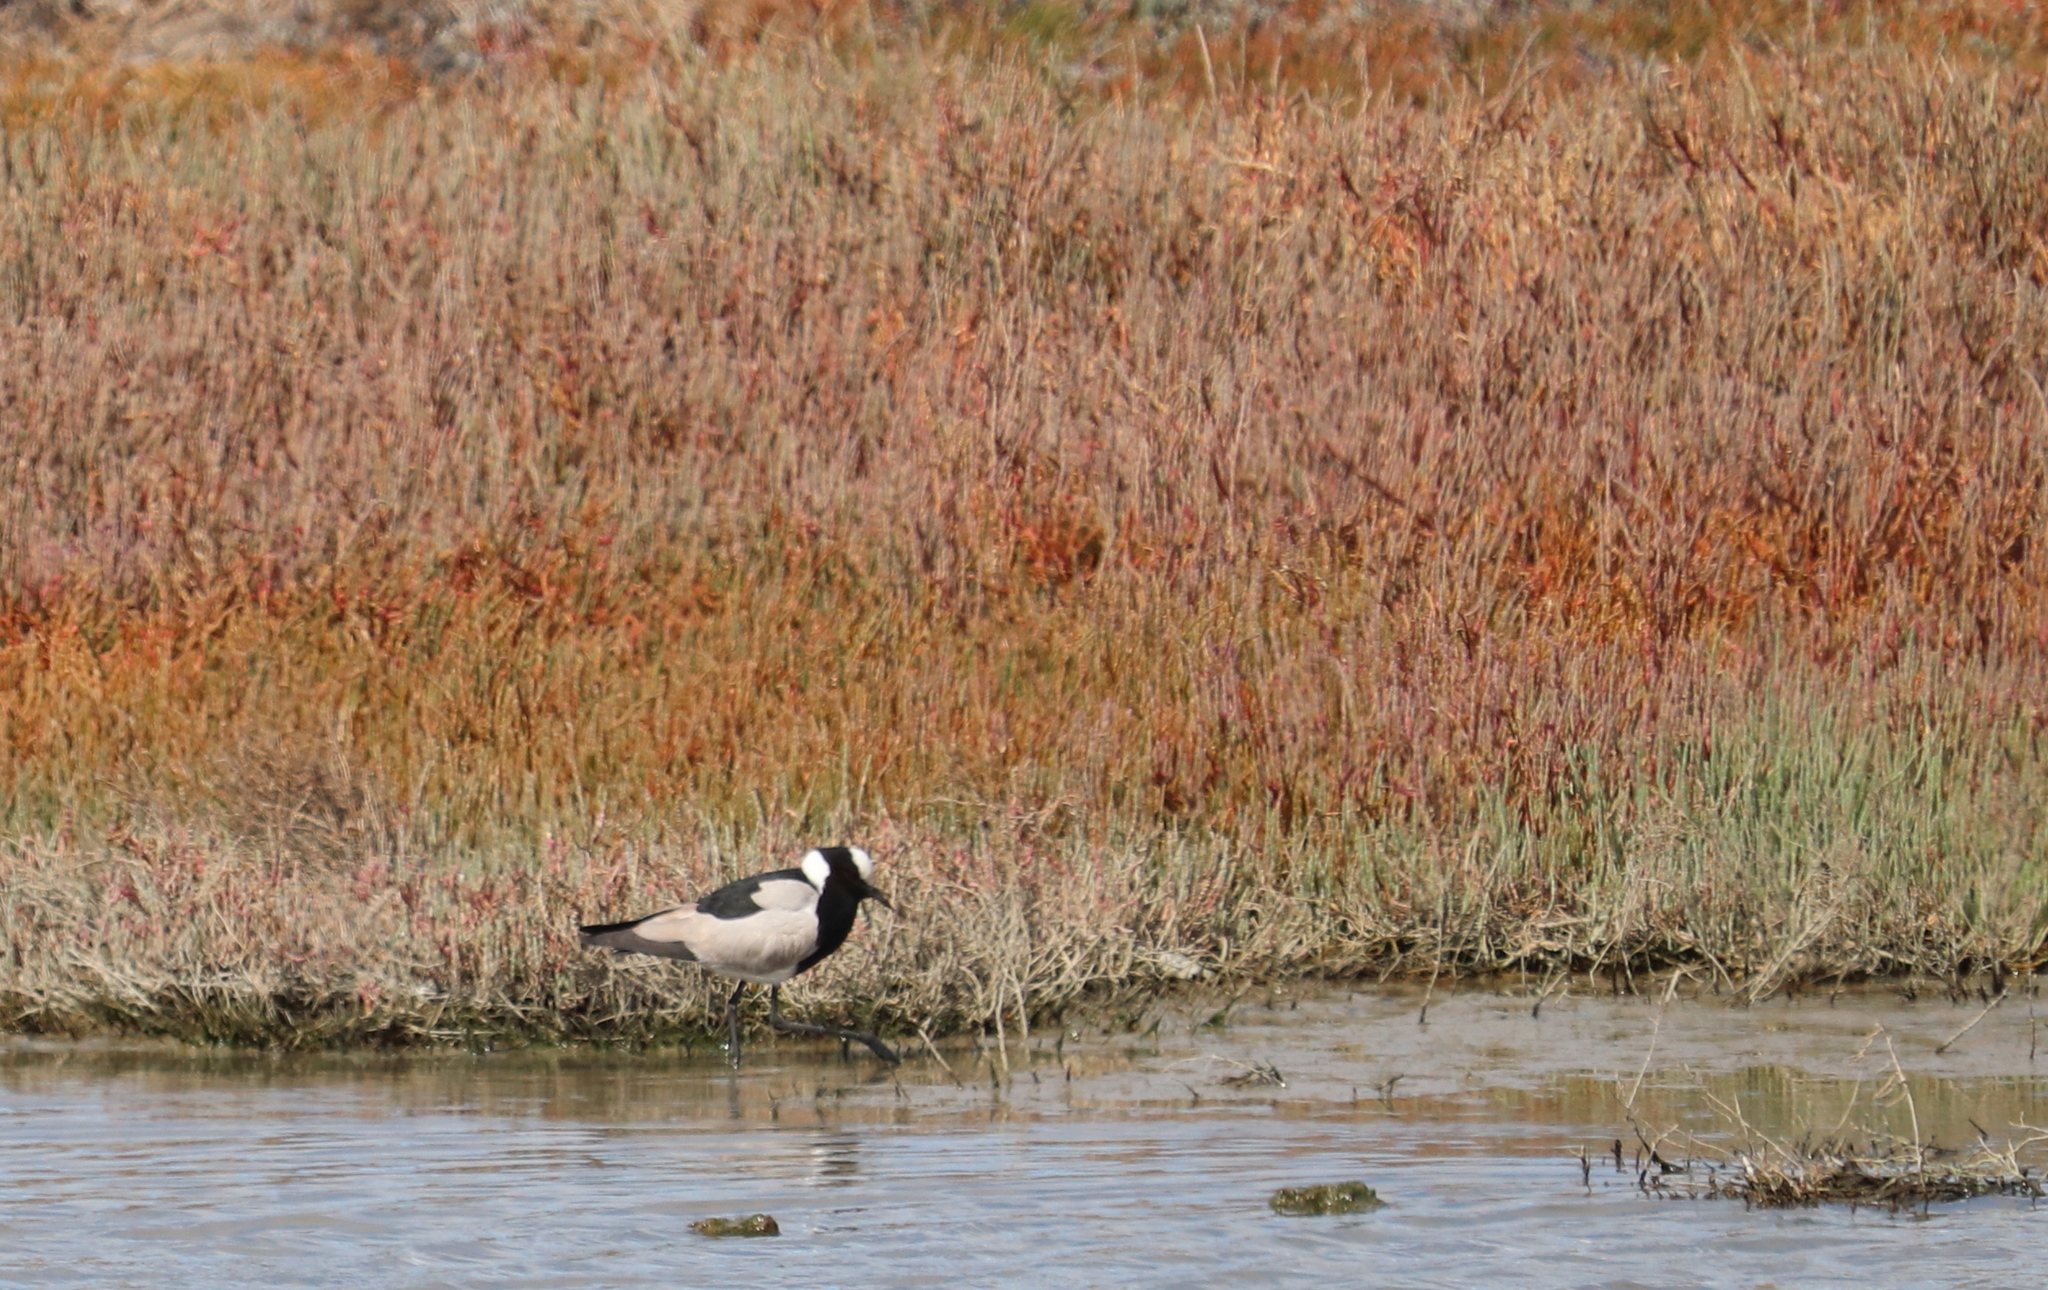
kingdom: Animalia
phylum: Chordata
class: Aves
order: Charadriiformes
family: Charadriidae
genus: Vanellus
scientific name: Vanellus armatus
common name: Blacksmith lapwing
